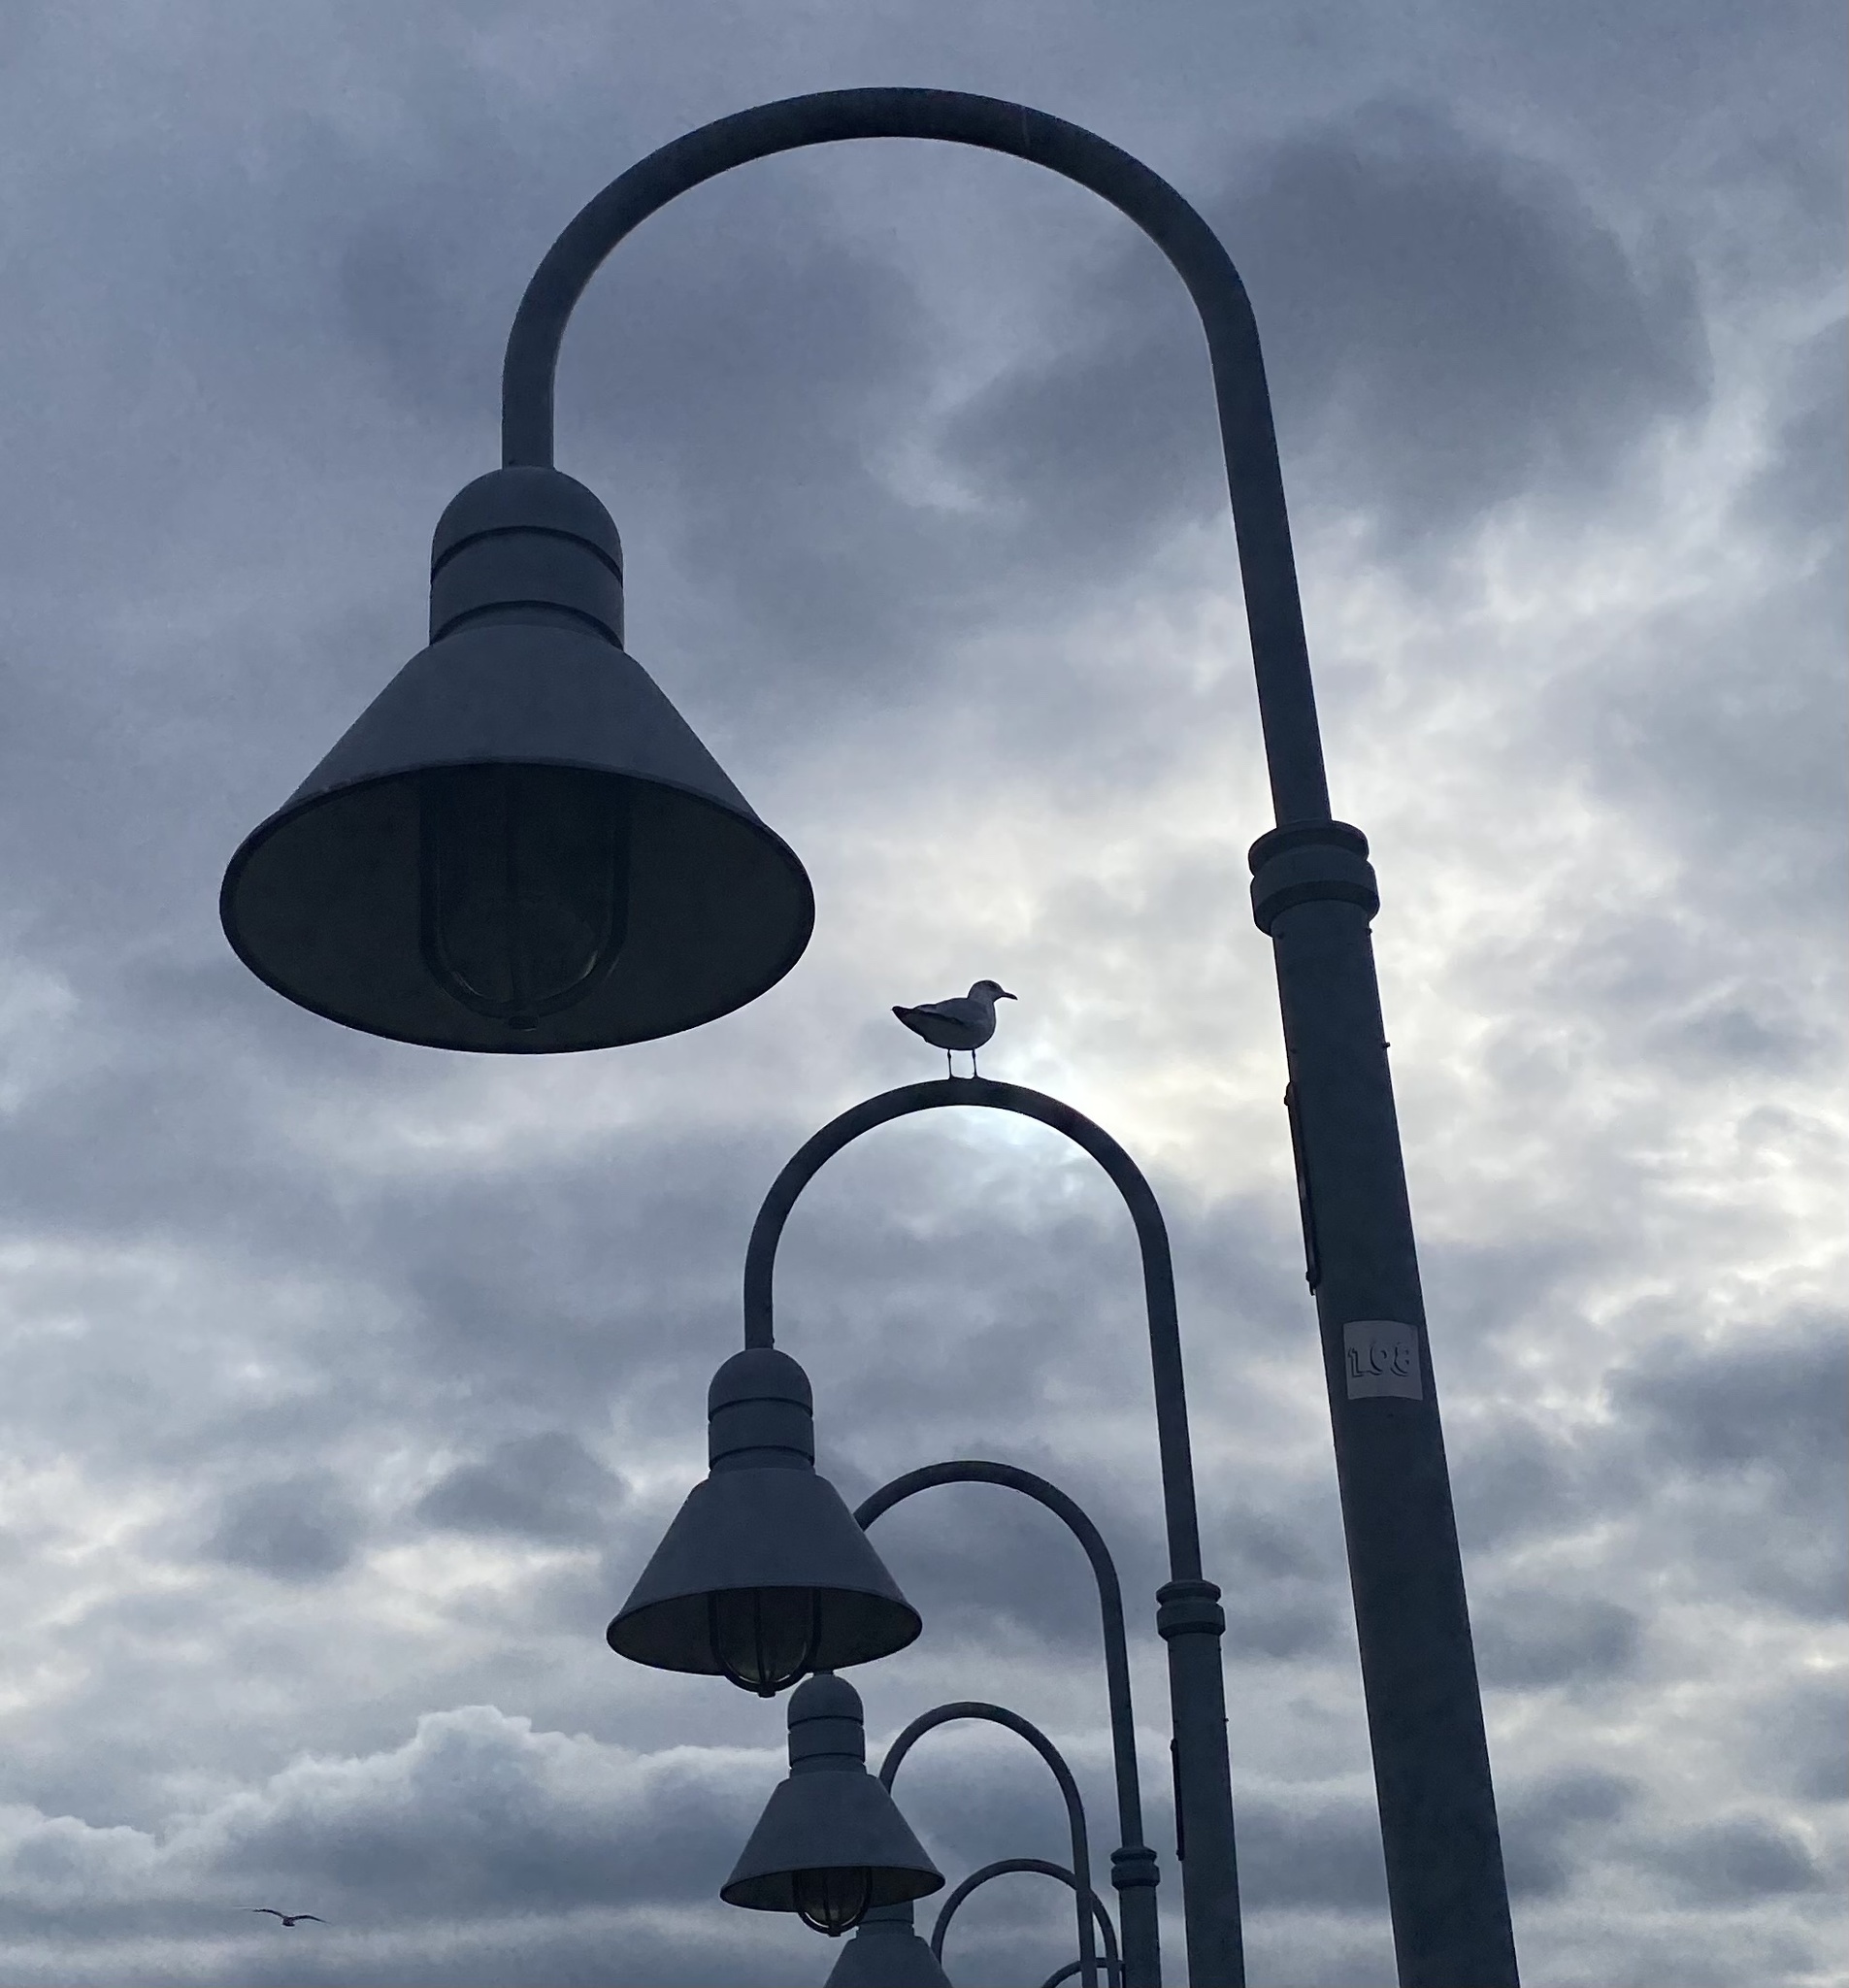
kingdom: Animalia
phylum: Chordata
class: Aves
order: Charadriiformes
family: Laridae
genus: Larus
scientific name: Larus delawarensis
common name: Ring-billed gull
